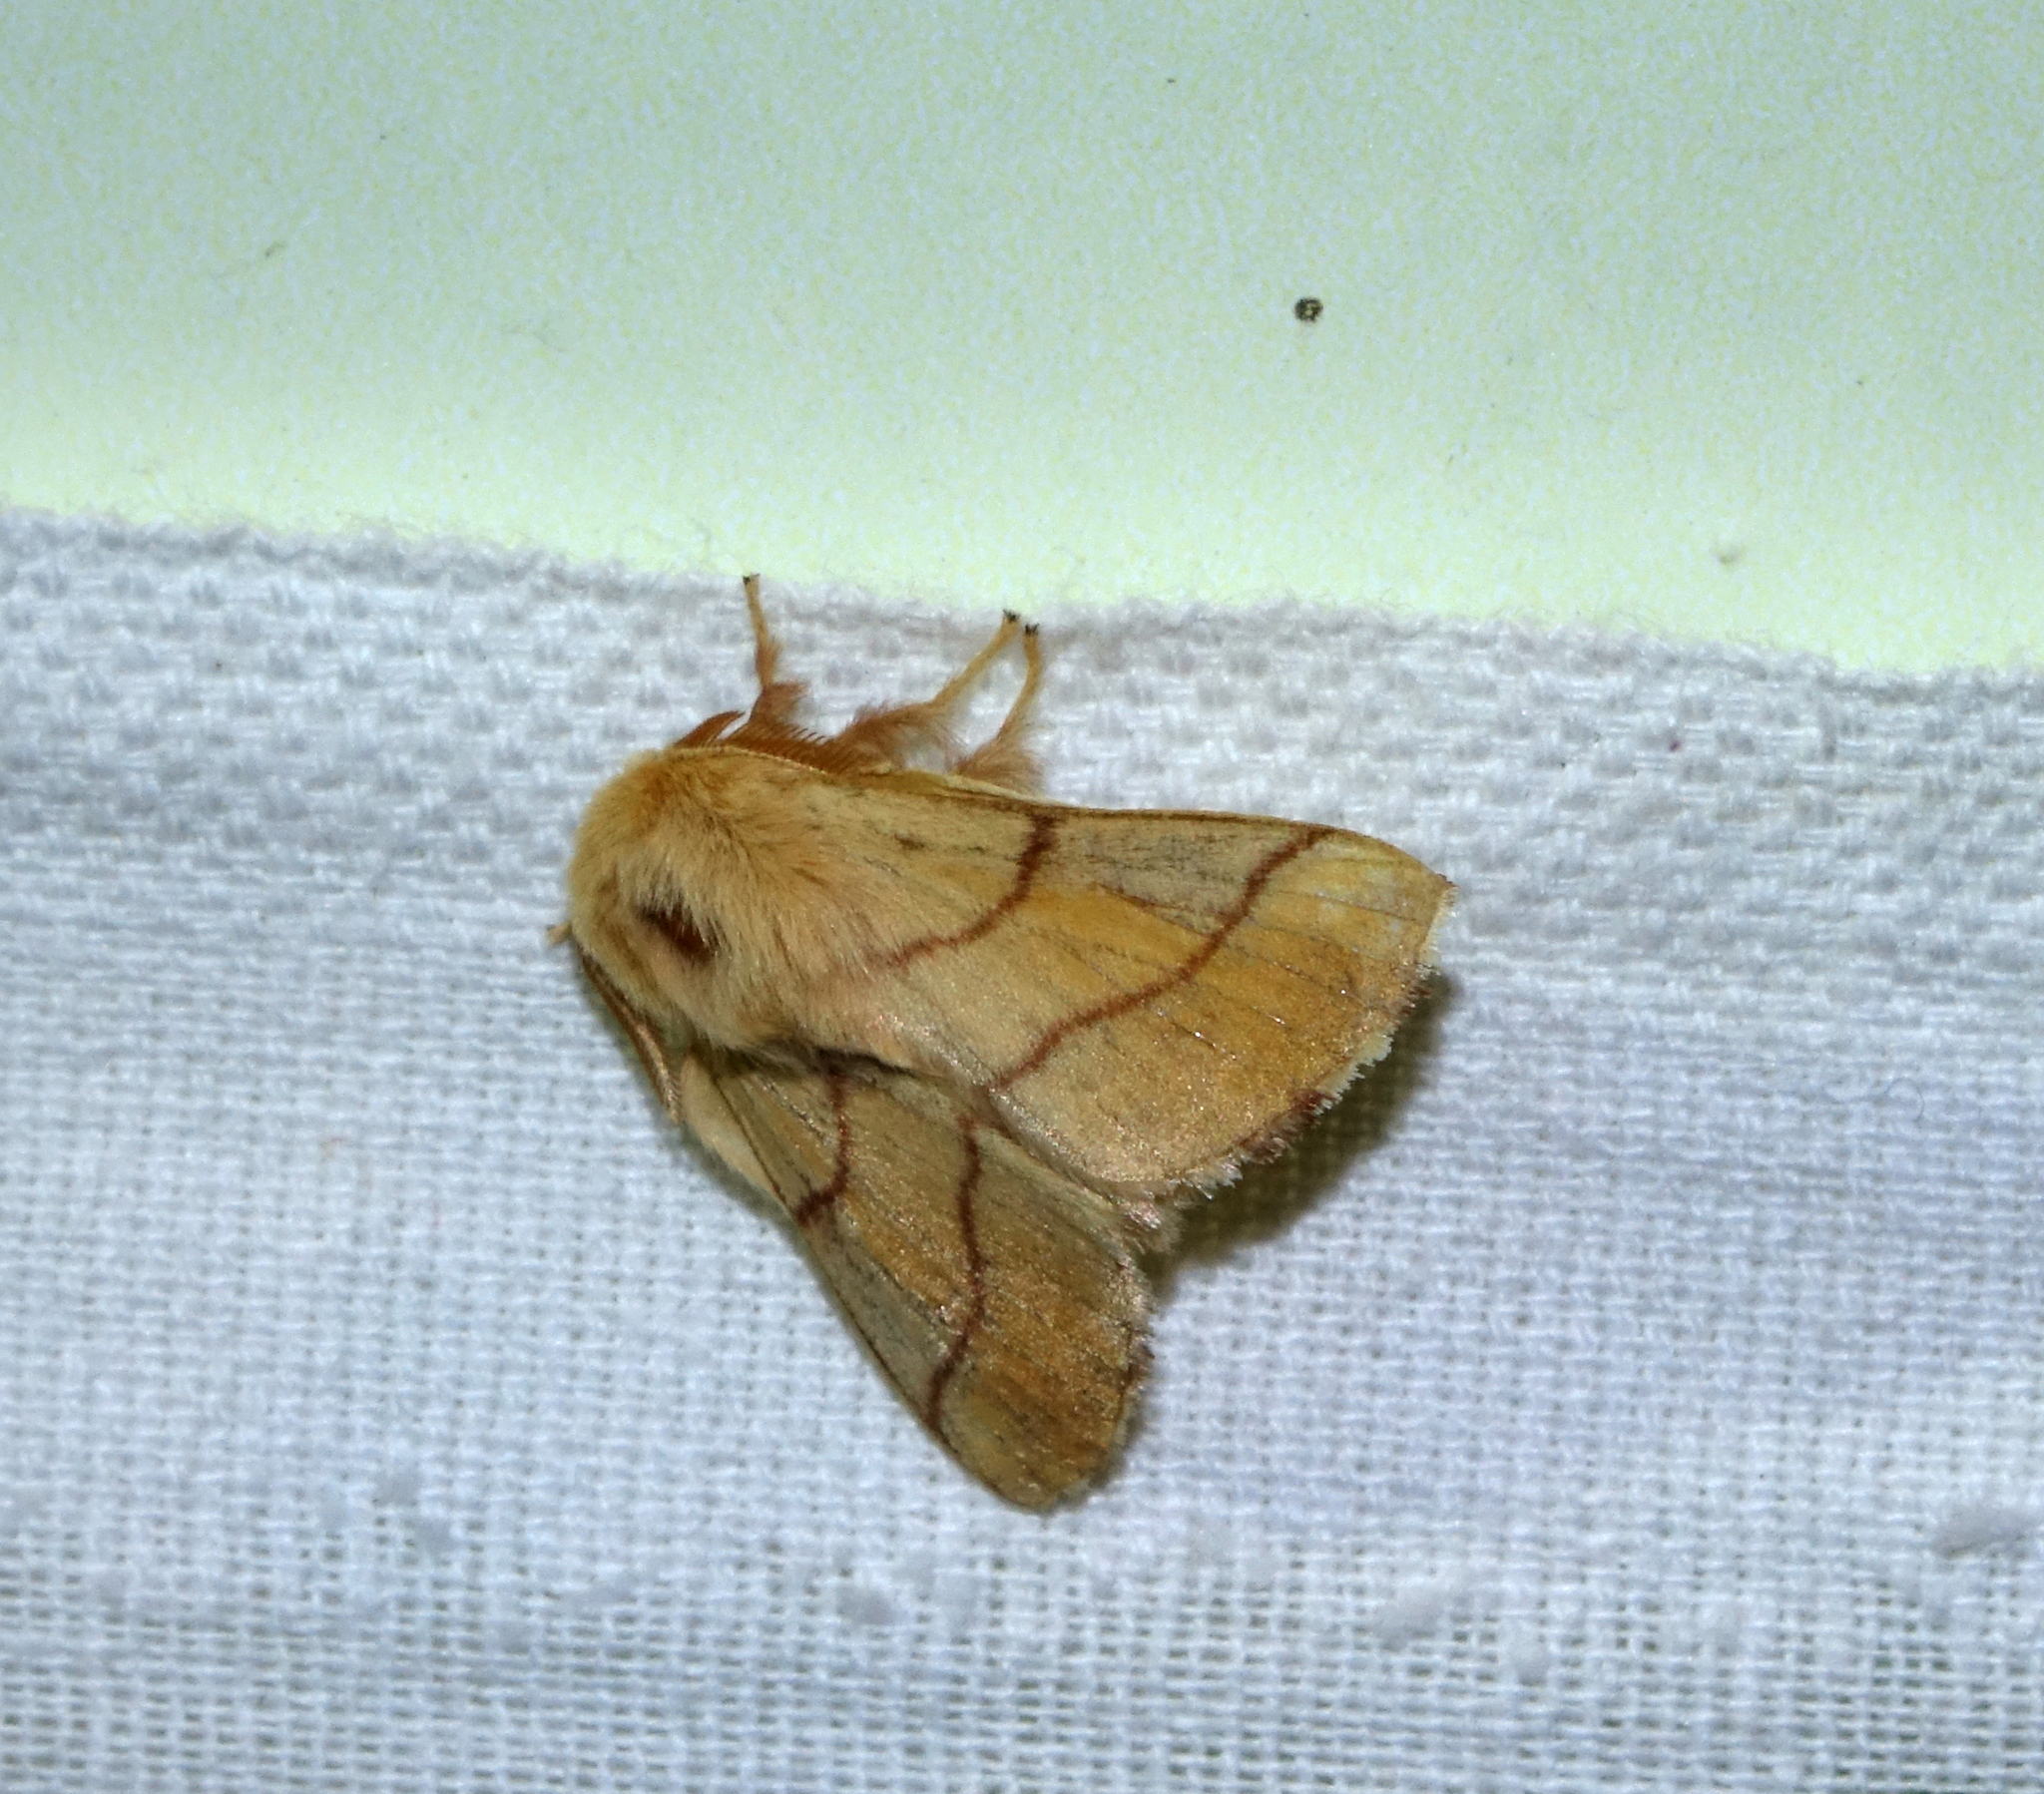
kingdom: Animalia
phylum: Arthropoda
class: Insecta
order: Lepidoptera
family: Lasiocampidae
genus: Malacosoma
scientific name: Malacosoma neustria
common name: The lackey
